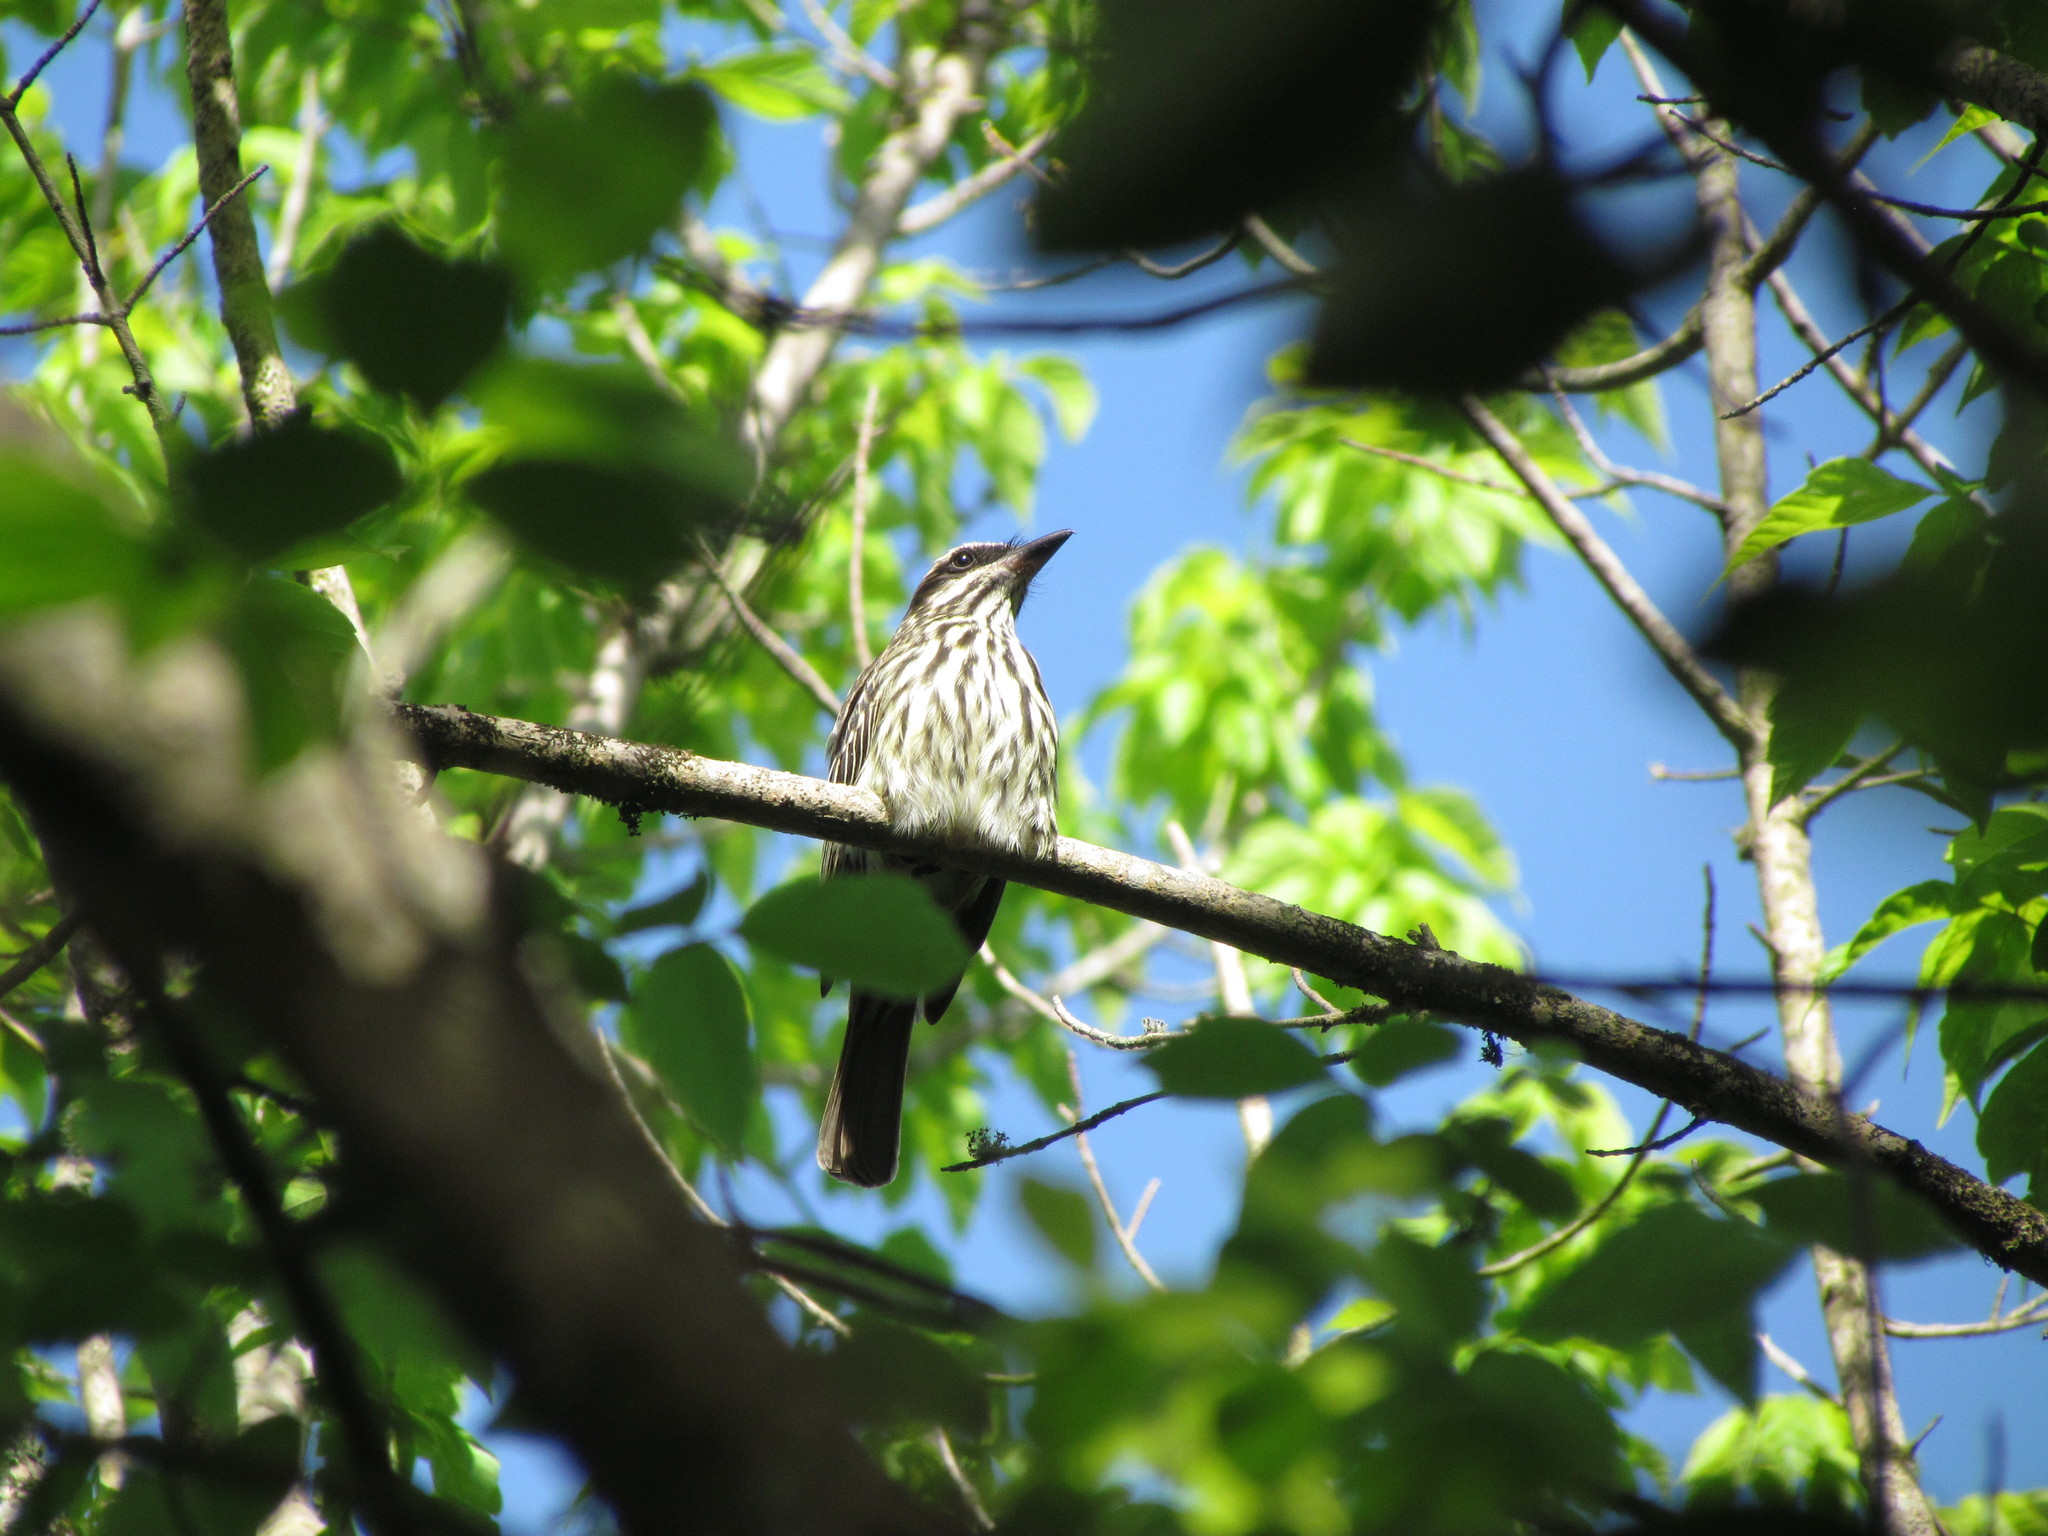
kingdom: Animalia
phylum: Chordata
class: Aves
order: Passeriformes
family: Tyrannidae
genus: Myiodynastes
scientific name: Myiodynastes maculatus
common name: Streaked flycatcher
